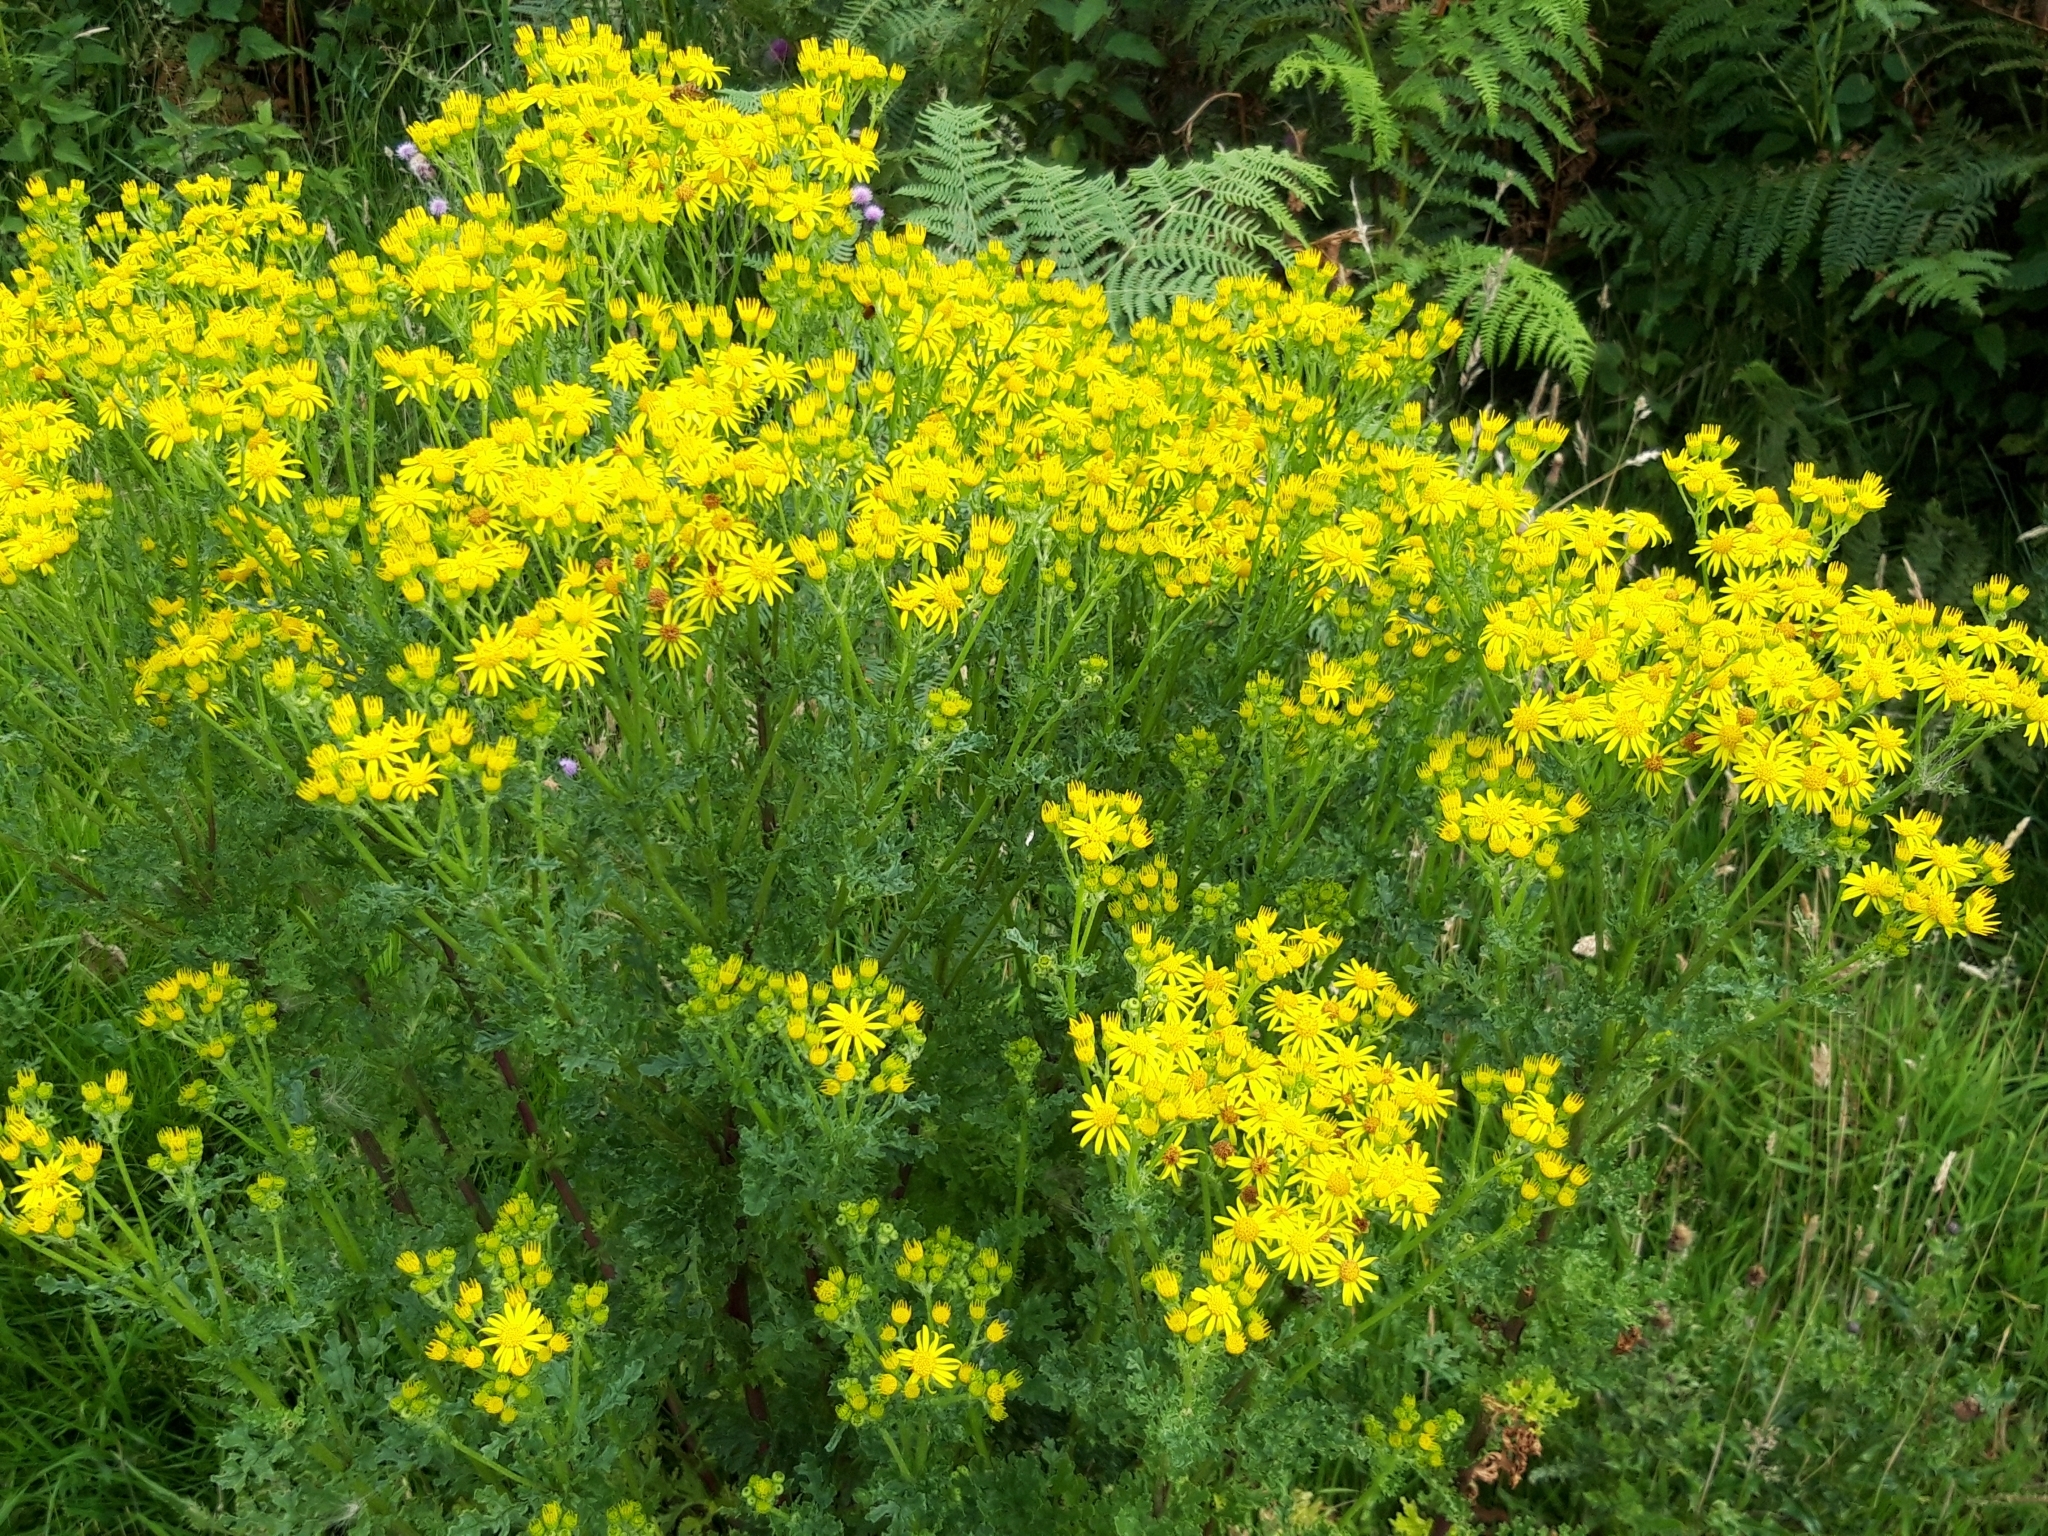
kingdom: Plantae
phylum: Tracheophyta
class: Magnoliopsida
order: Asterales
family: Asteraceae
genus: Jacobaea
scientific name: Jacobaea vulgaris
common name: Stinking willie
